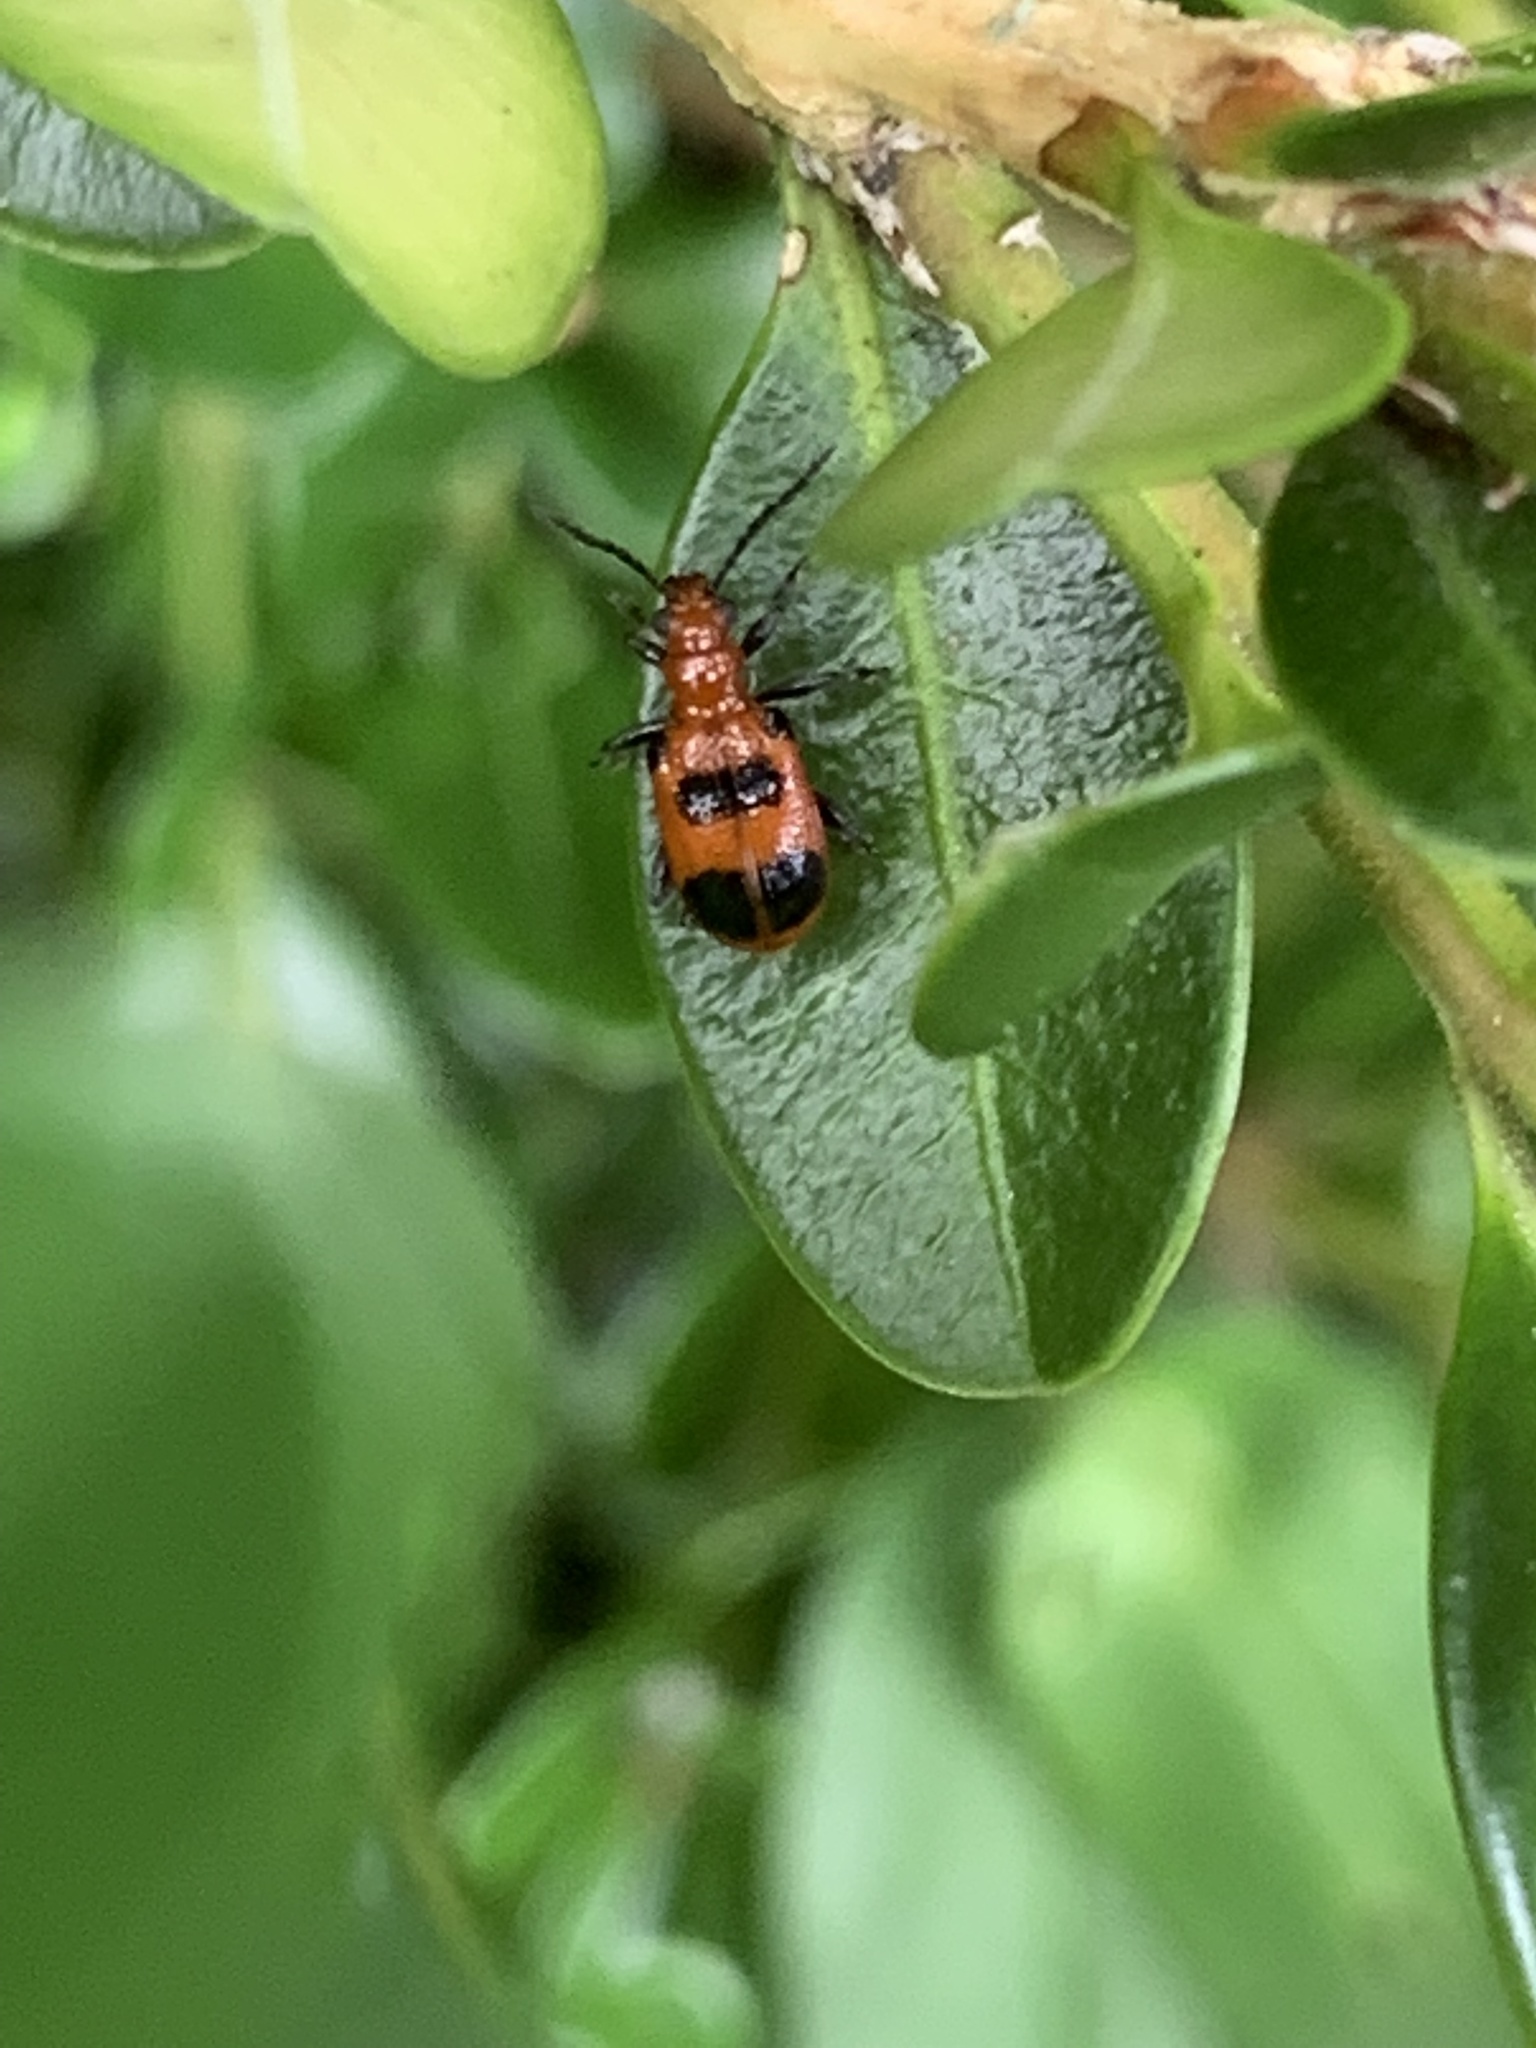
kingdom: Animalia
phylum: Arthropoda
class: Insecta
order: Coleoptera
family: Chrysomelidae
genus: Neolema
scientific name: Neolema sexpunctata
